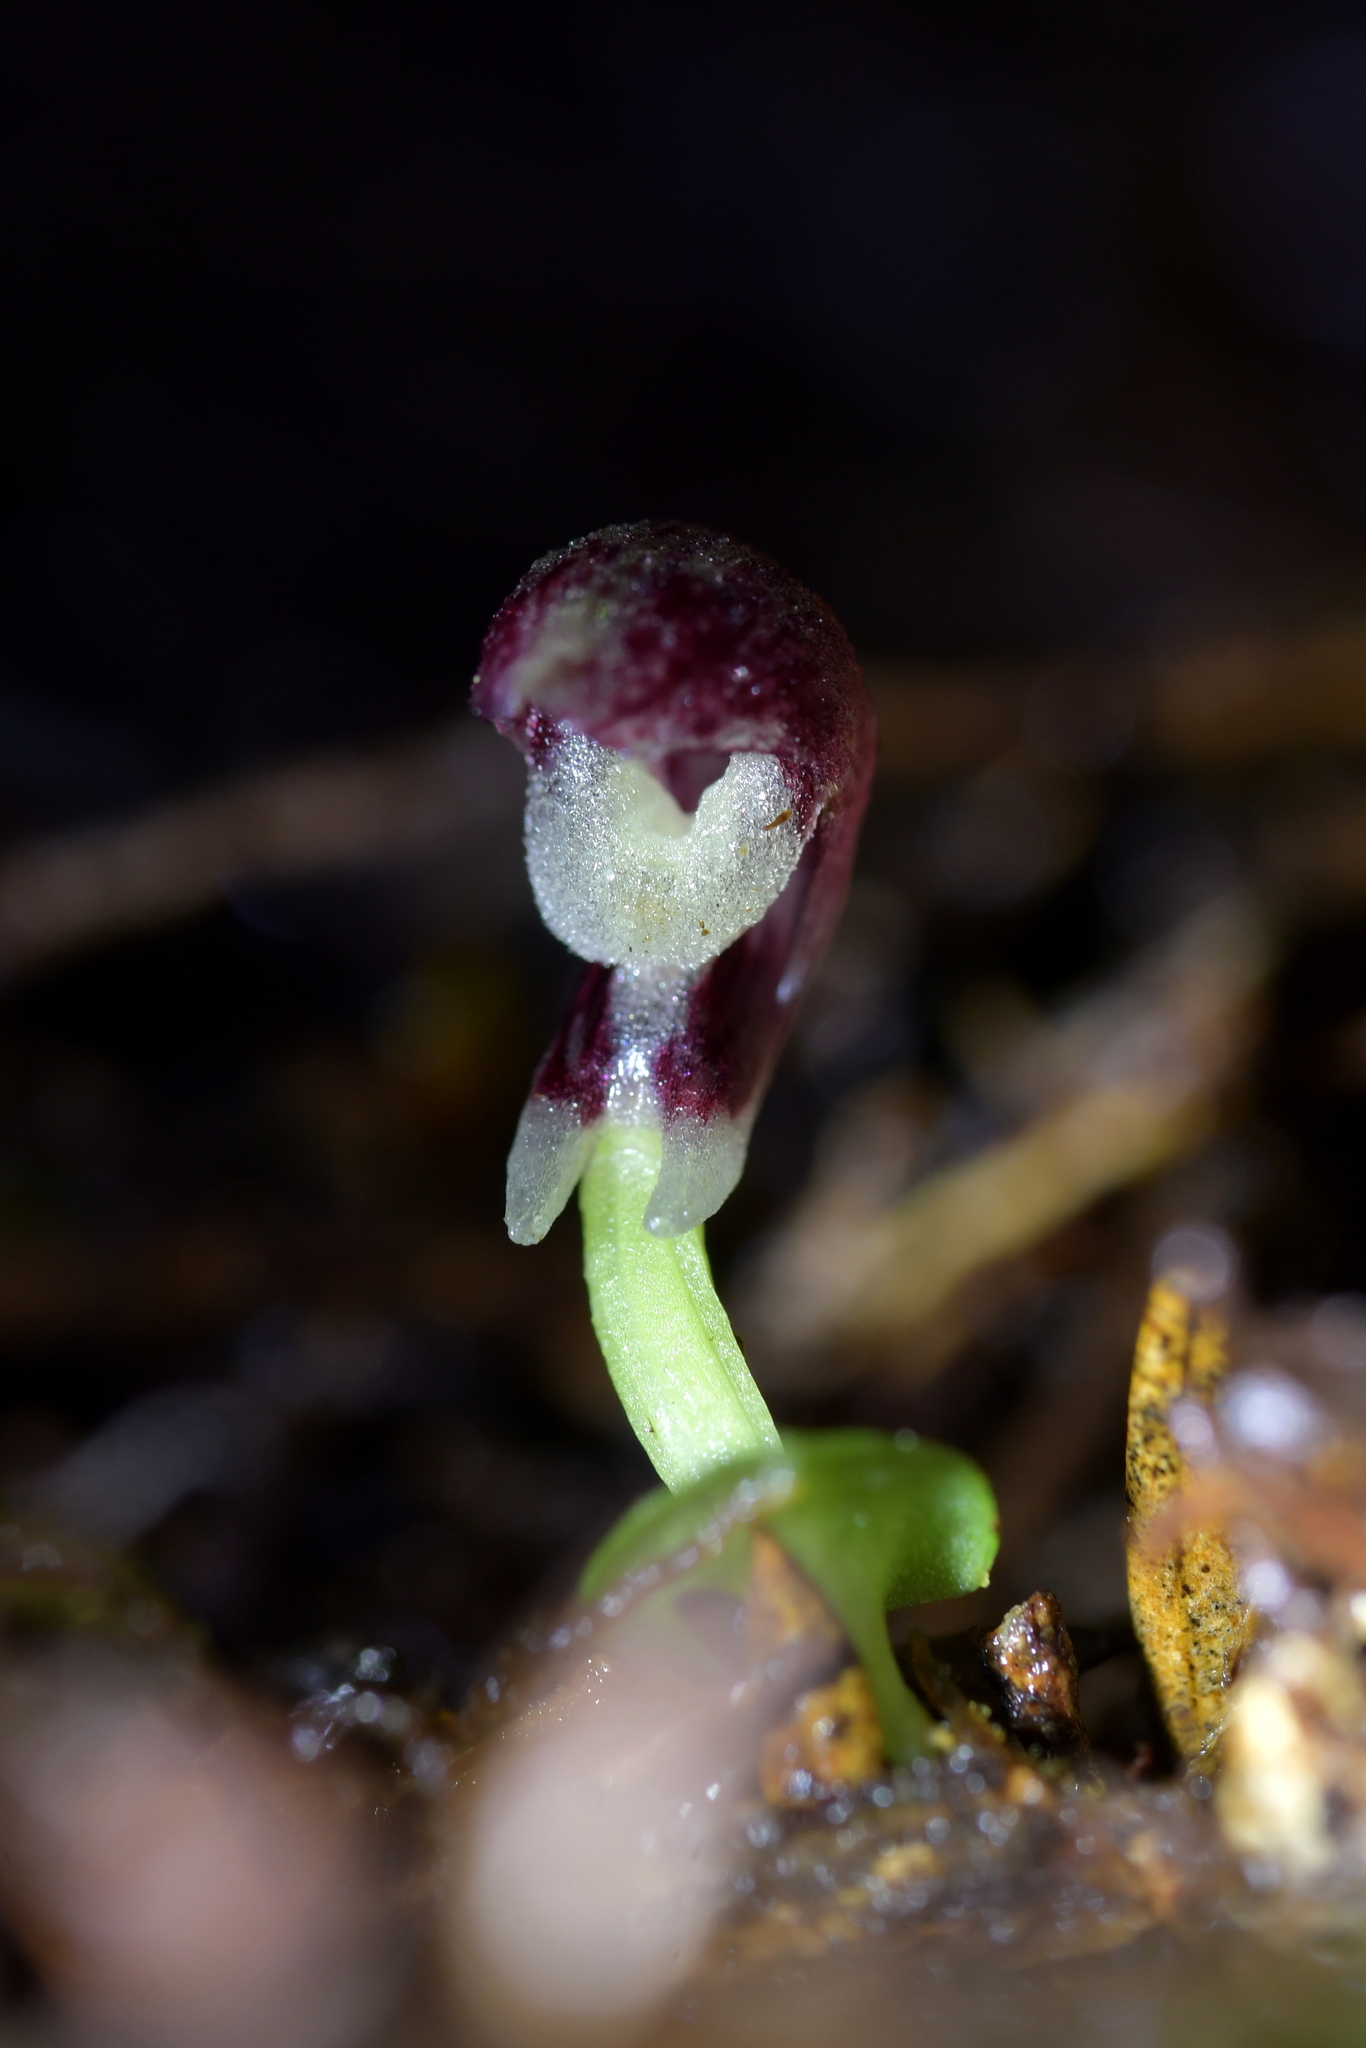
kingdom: Plantae
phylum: Tracheophyta
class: Liliopsida
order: Asparagales
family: Orchidaceae
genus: Corybas
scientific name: Corybas cheesemanii
